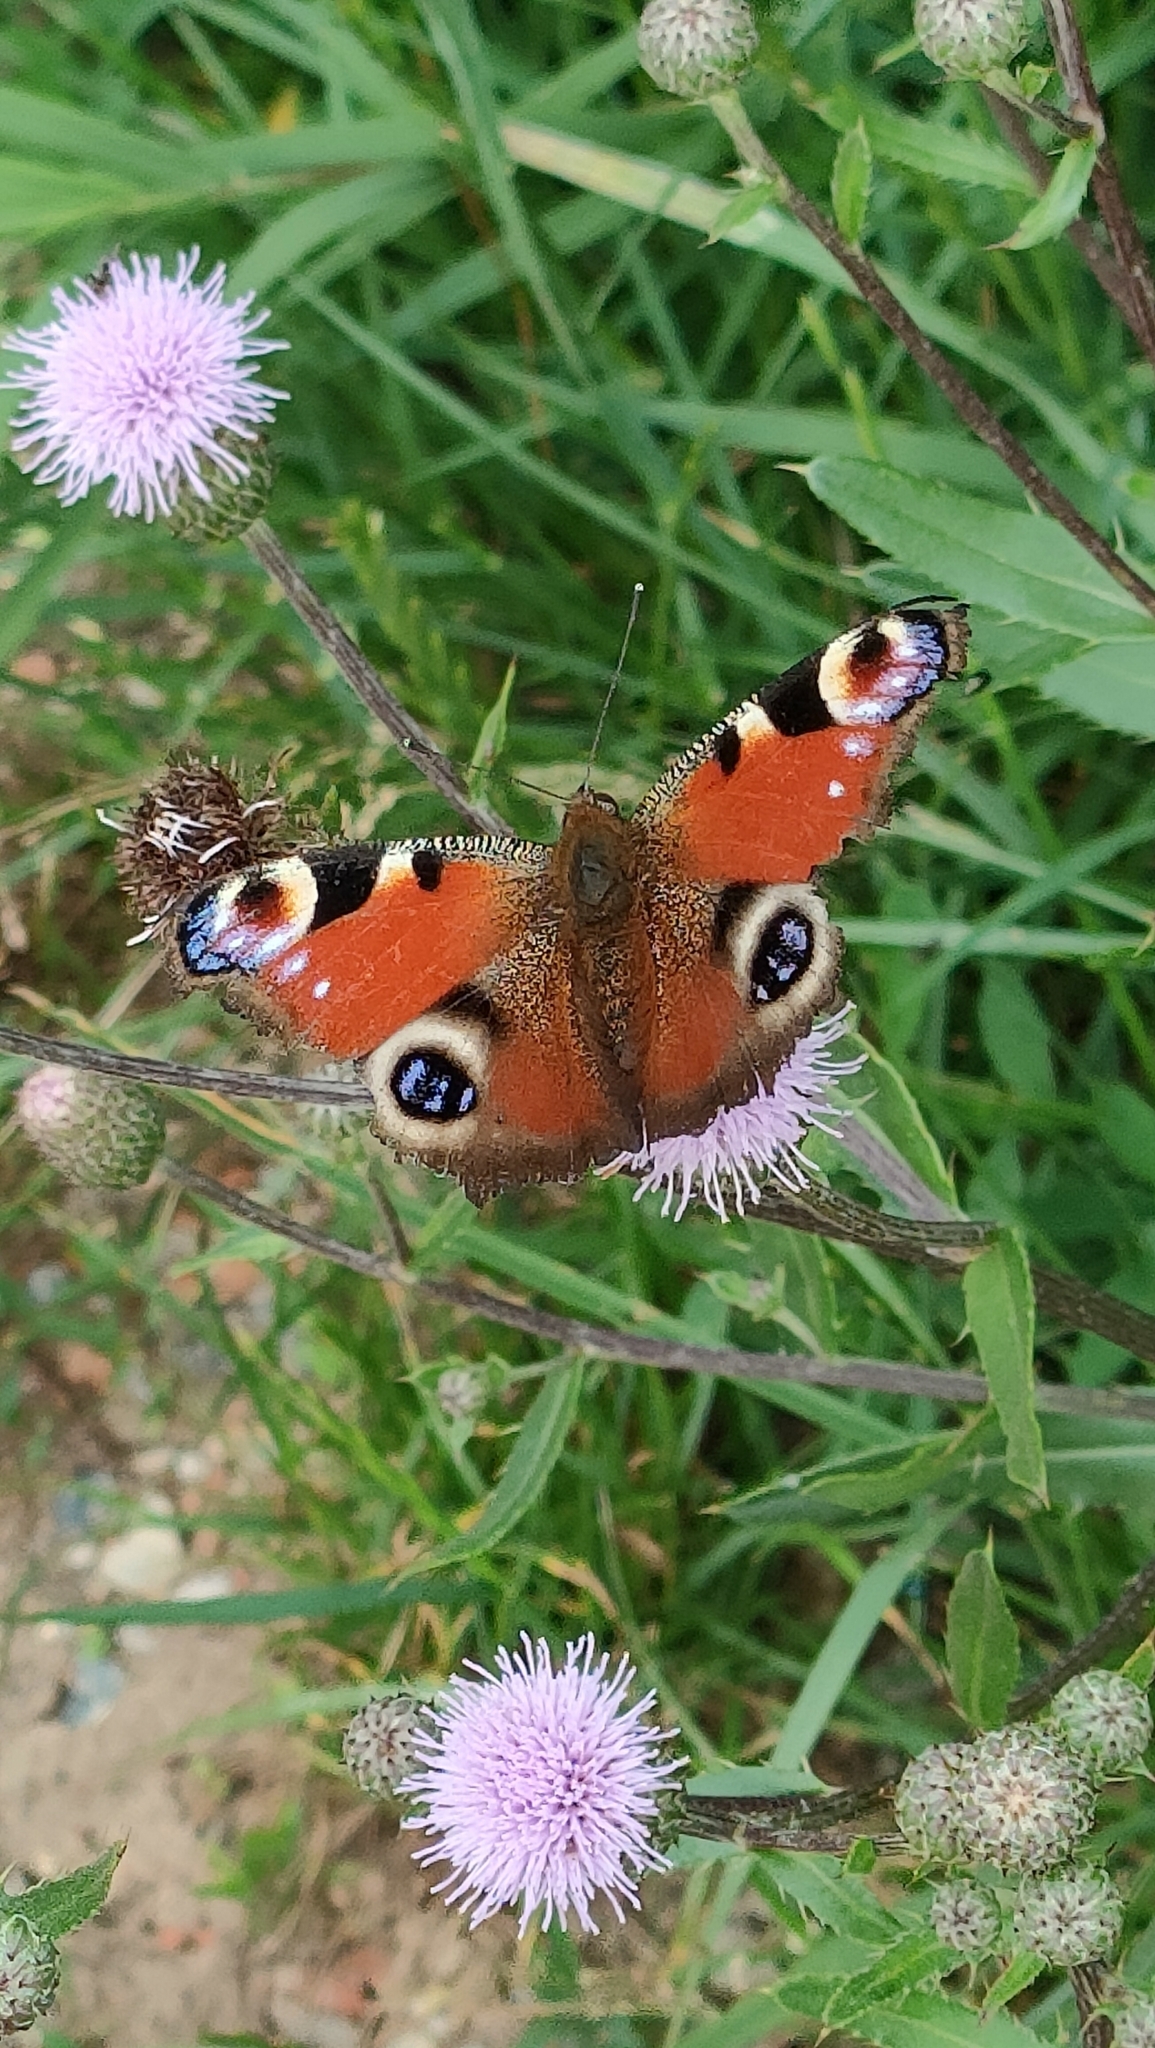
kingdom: Animalia
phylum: Arthropoda
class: Insecta
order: Lepidoptera
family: Nymphalidae
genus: Aglais
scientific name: Aglais io
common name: Peacock
